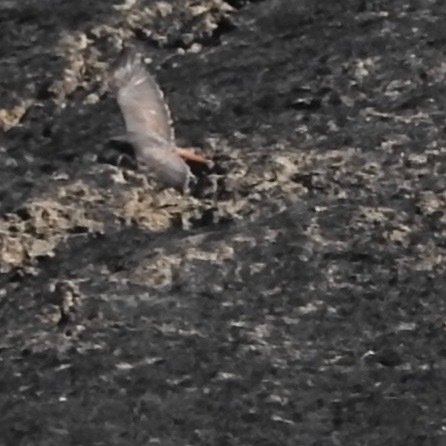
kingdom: Animalia
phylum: Chordata
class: Aves
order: Accipitriformes
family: Accipitridae
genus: Buteo
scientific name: Buteo jamaicensis
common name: Red-tailed hawk
